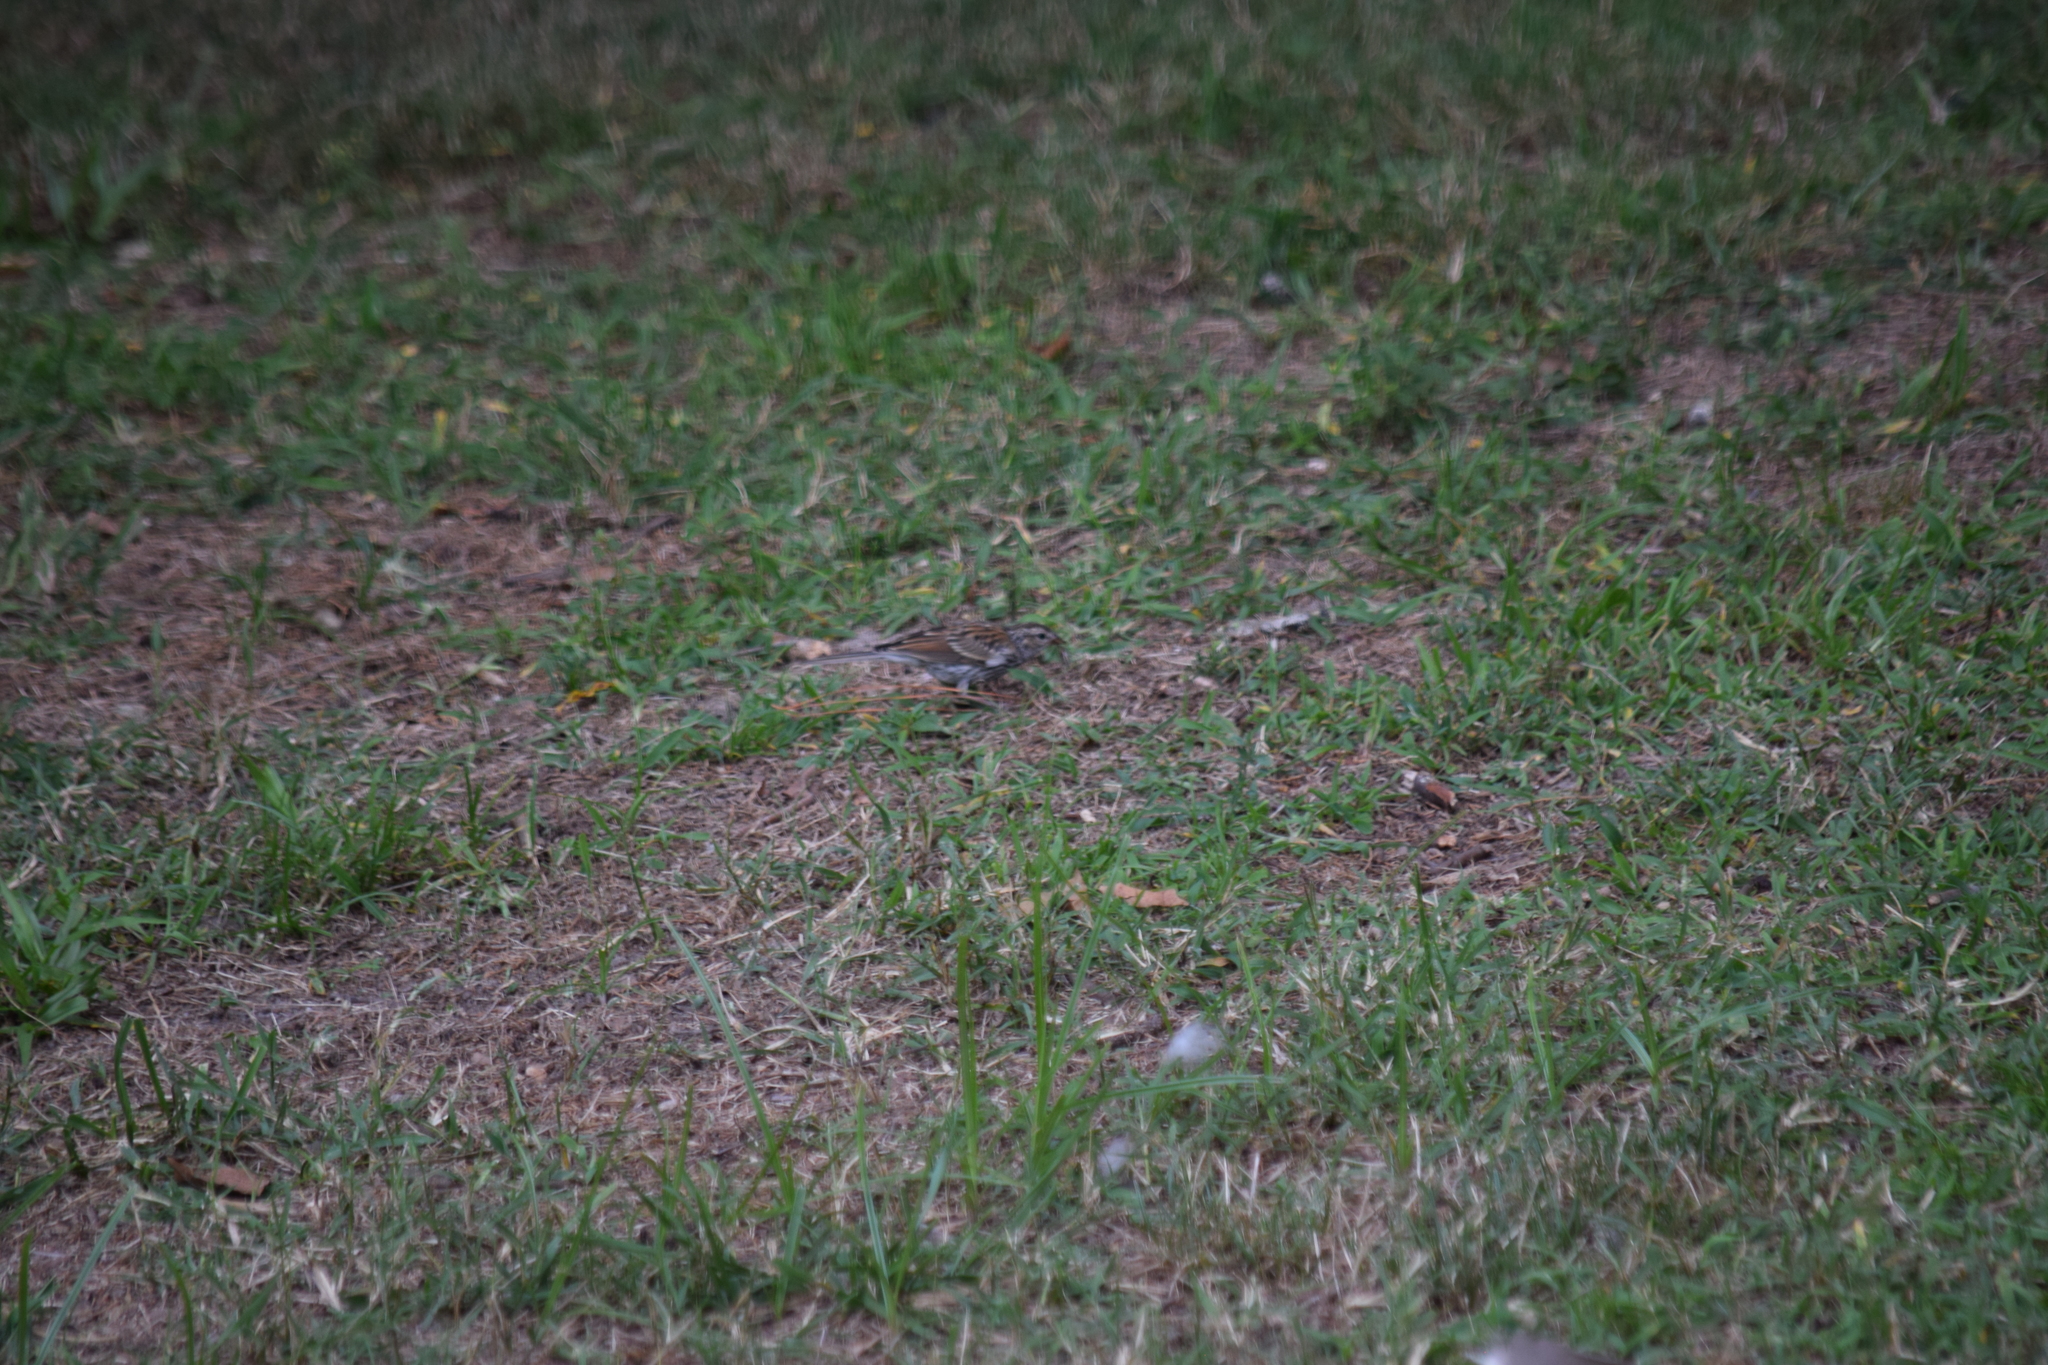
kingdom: Animalia
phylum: Chordata
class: Aves
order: Passeriformes
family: Passerellidae
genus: Spizella
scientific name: Spizella passerina
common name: Chipping sparrow
